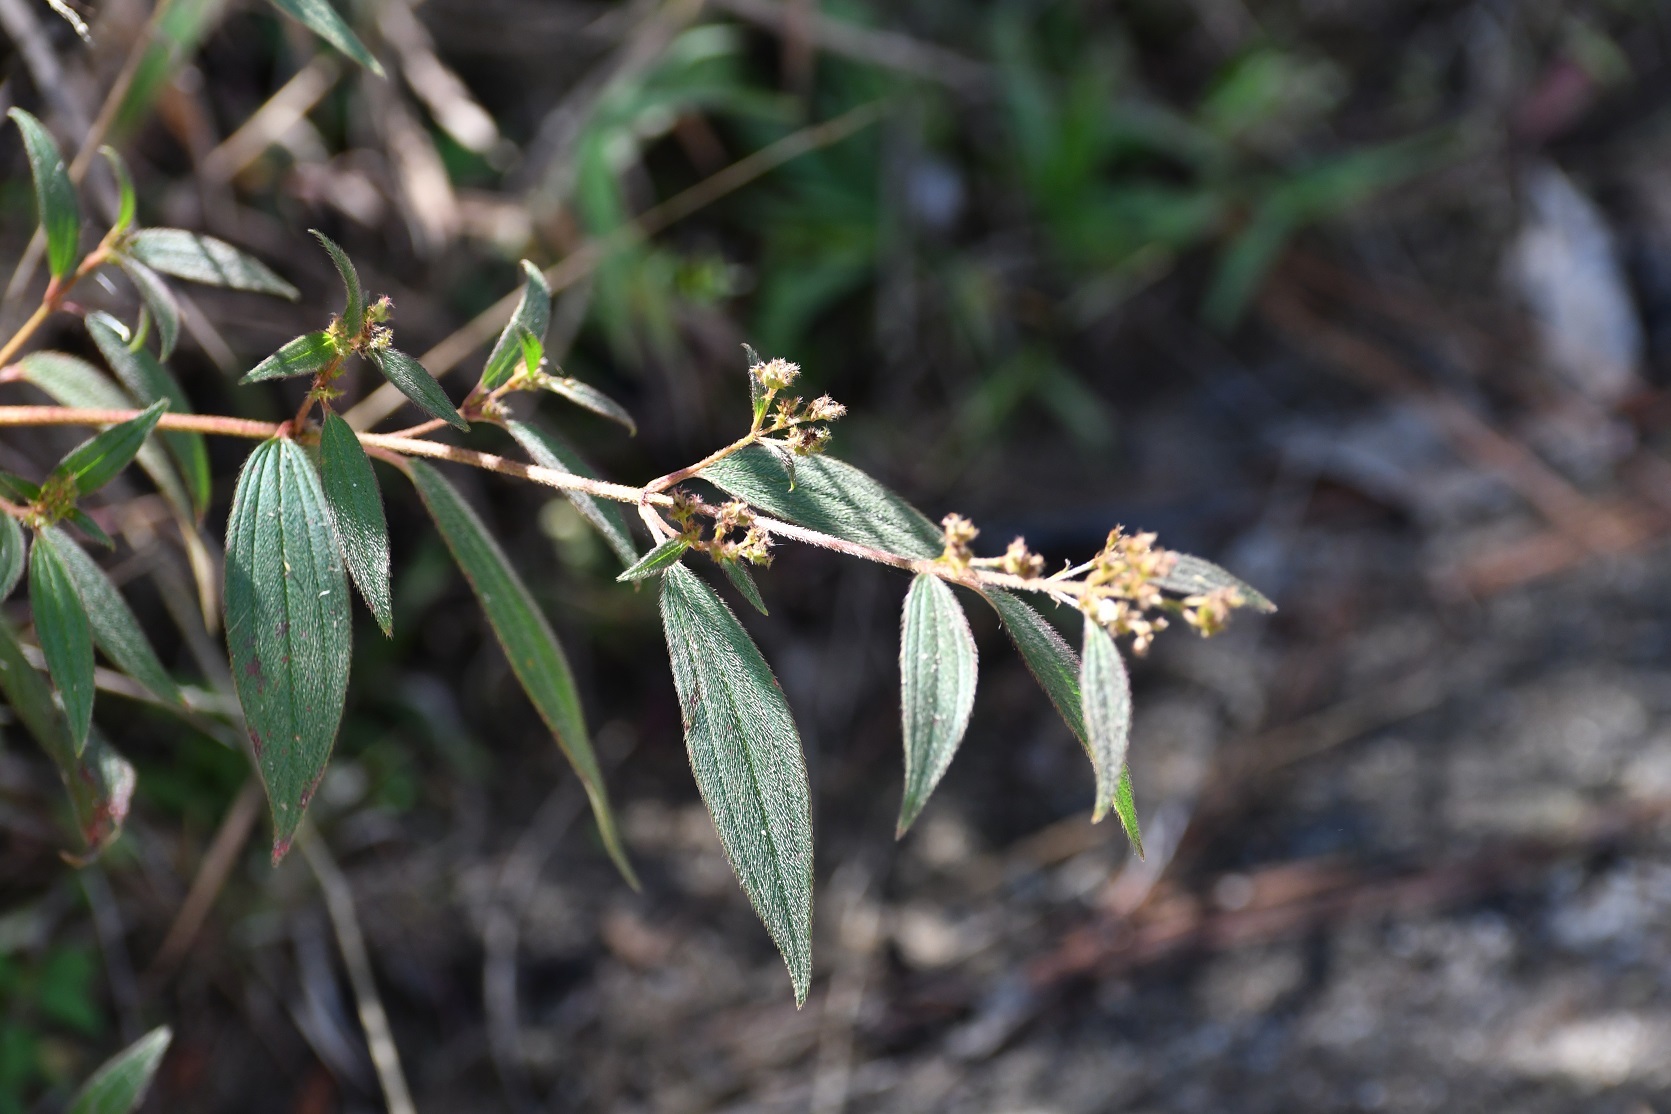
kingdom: Plantae
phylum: Tracheophyta
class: Magnoliopsida
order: Myrtales
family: Melastomataceae
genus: Chaetogastra
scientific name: Chaetogastra longifolia
